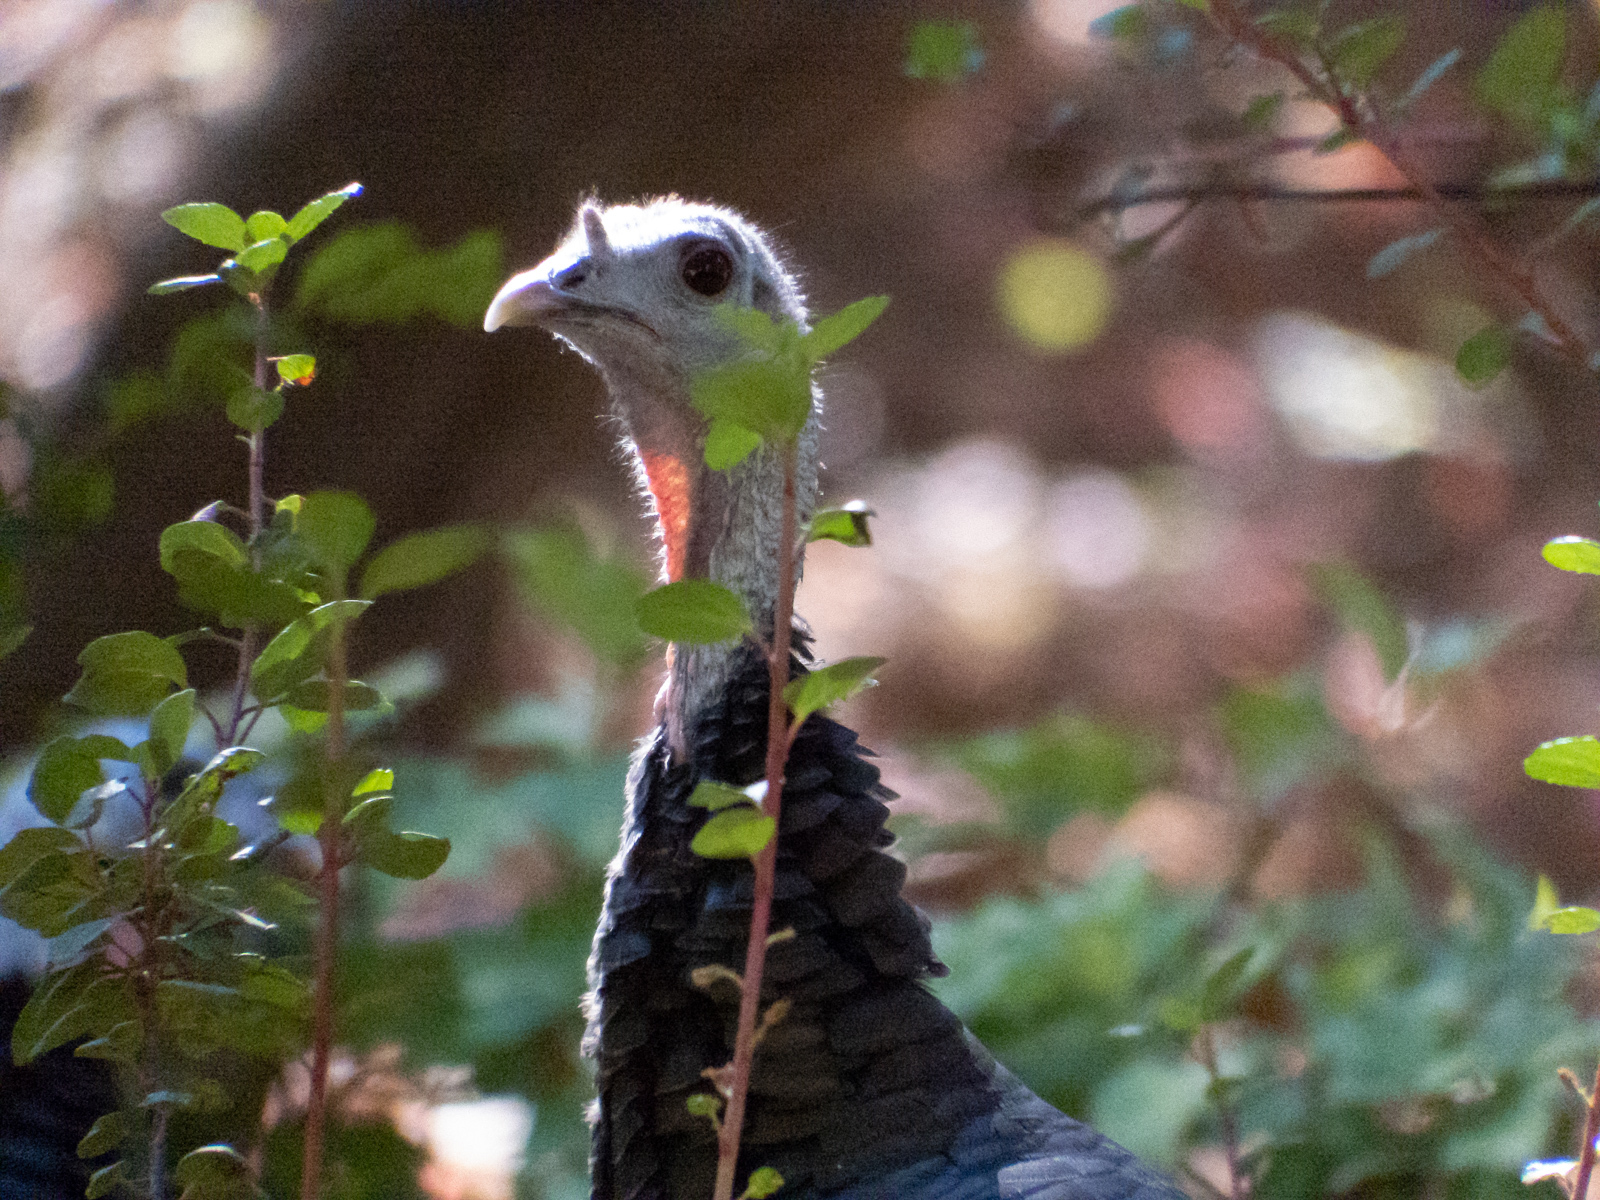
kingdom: Animalia
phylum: Chordata
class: Aves
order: Galliformes
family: Phasianidae
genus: Meleagris
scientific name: Meleagris gallopavo
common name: Wild turkey
